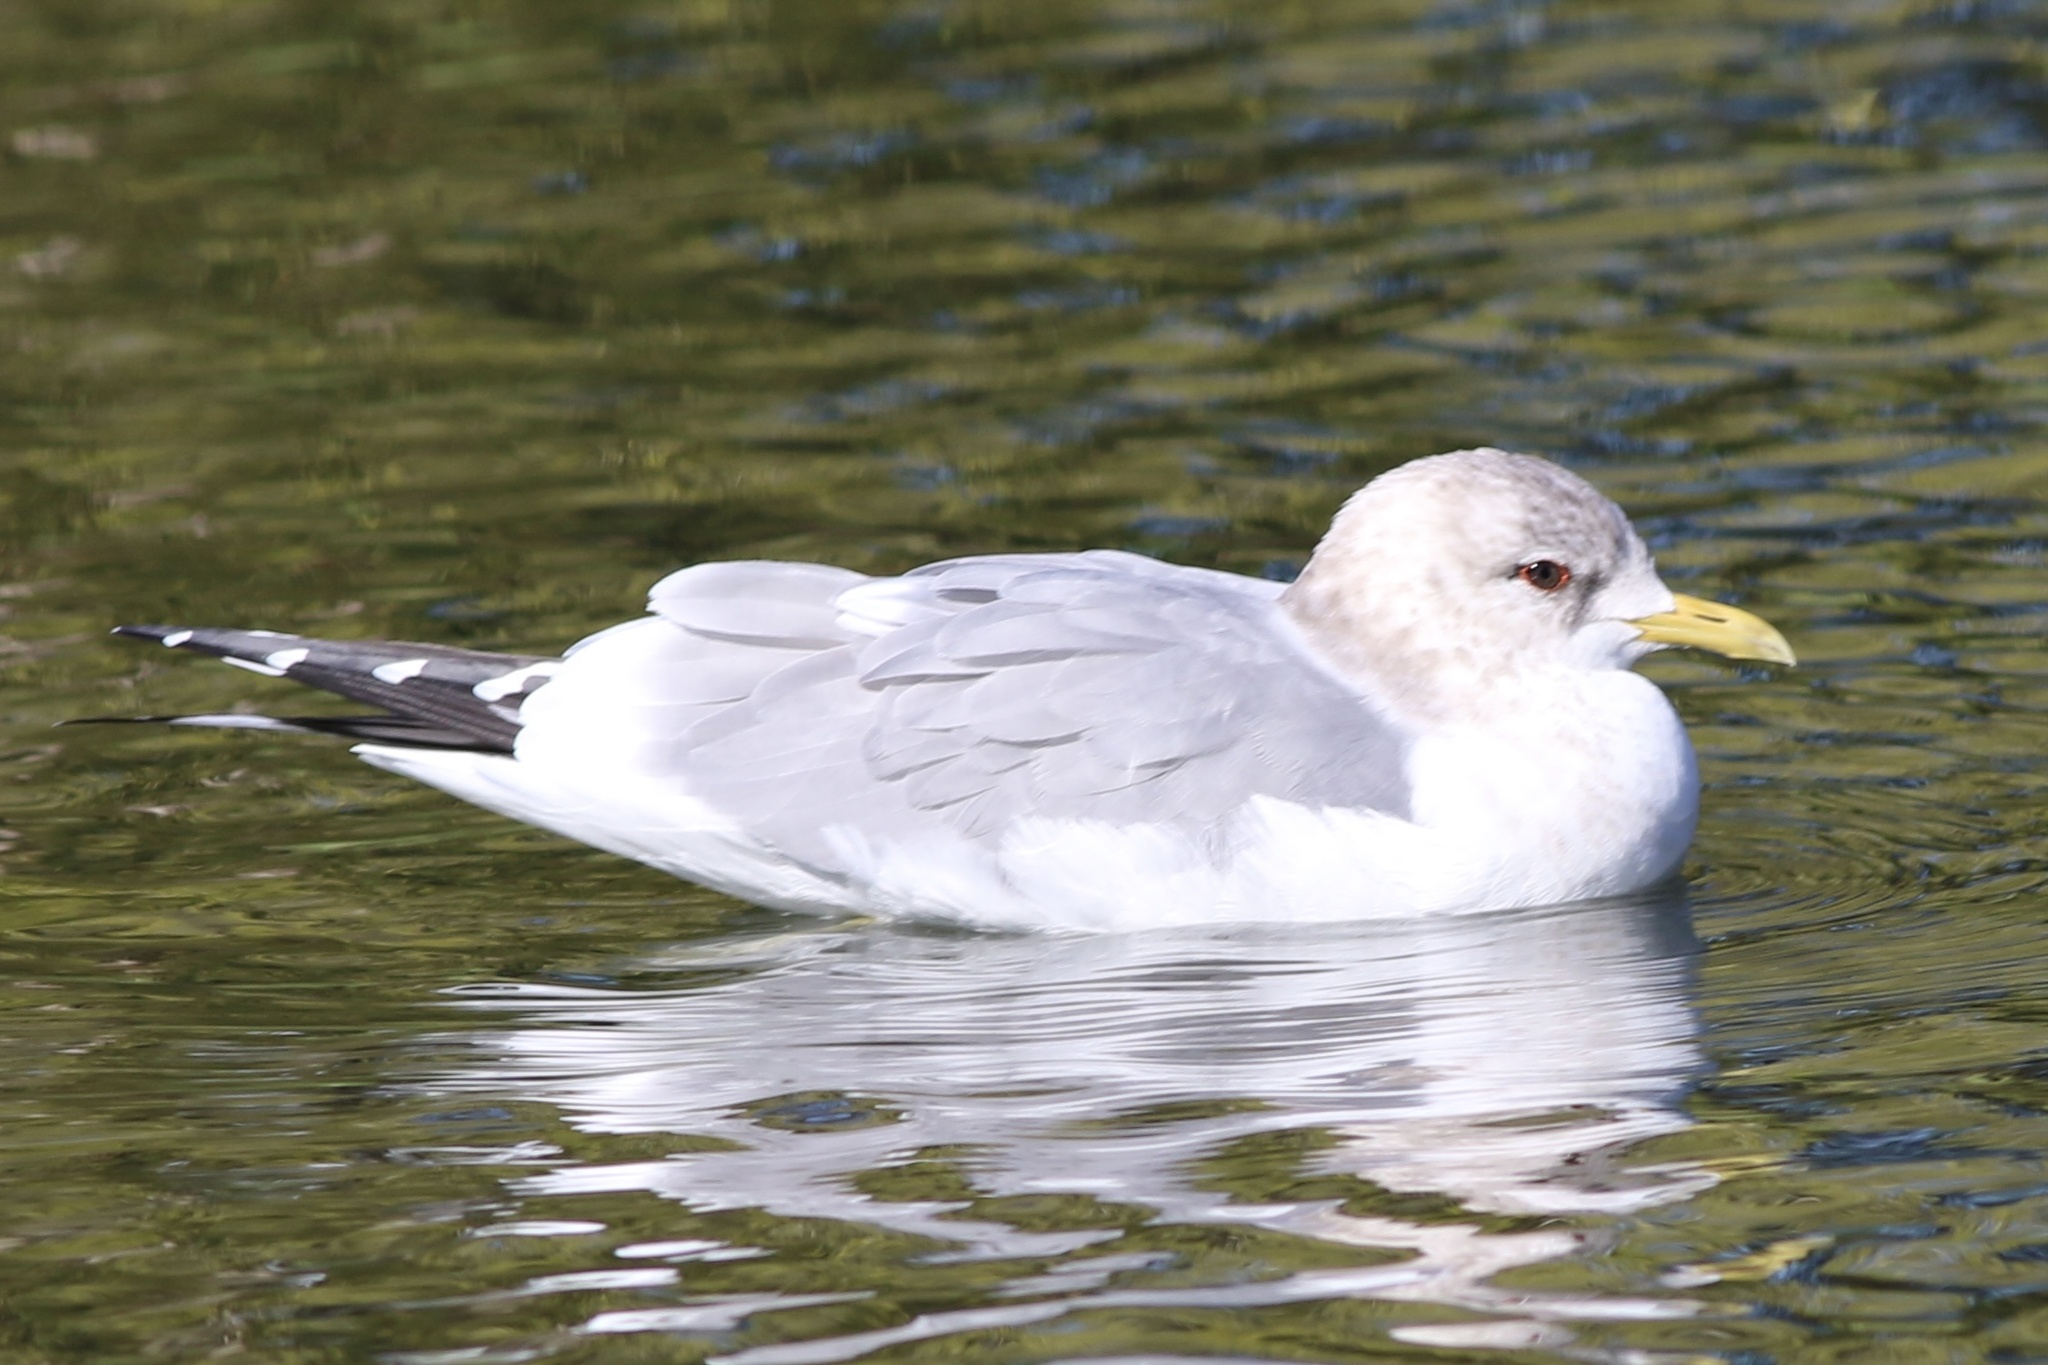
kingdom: Animalia
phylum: Chordata
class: Aves
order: Charadriiformes
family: Laridae
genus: Larus
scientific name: Larus brachyrhynchus
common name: Short-billed gull
